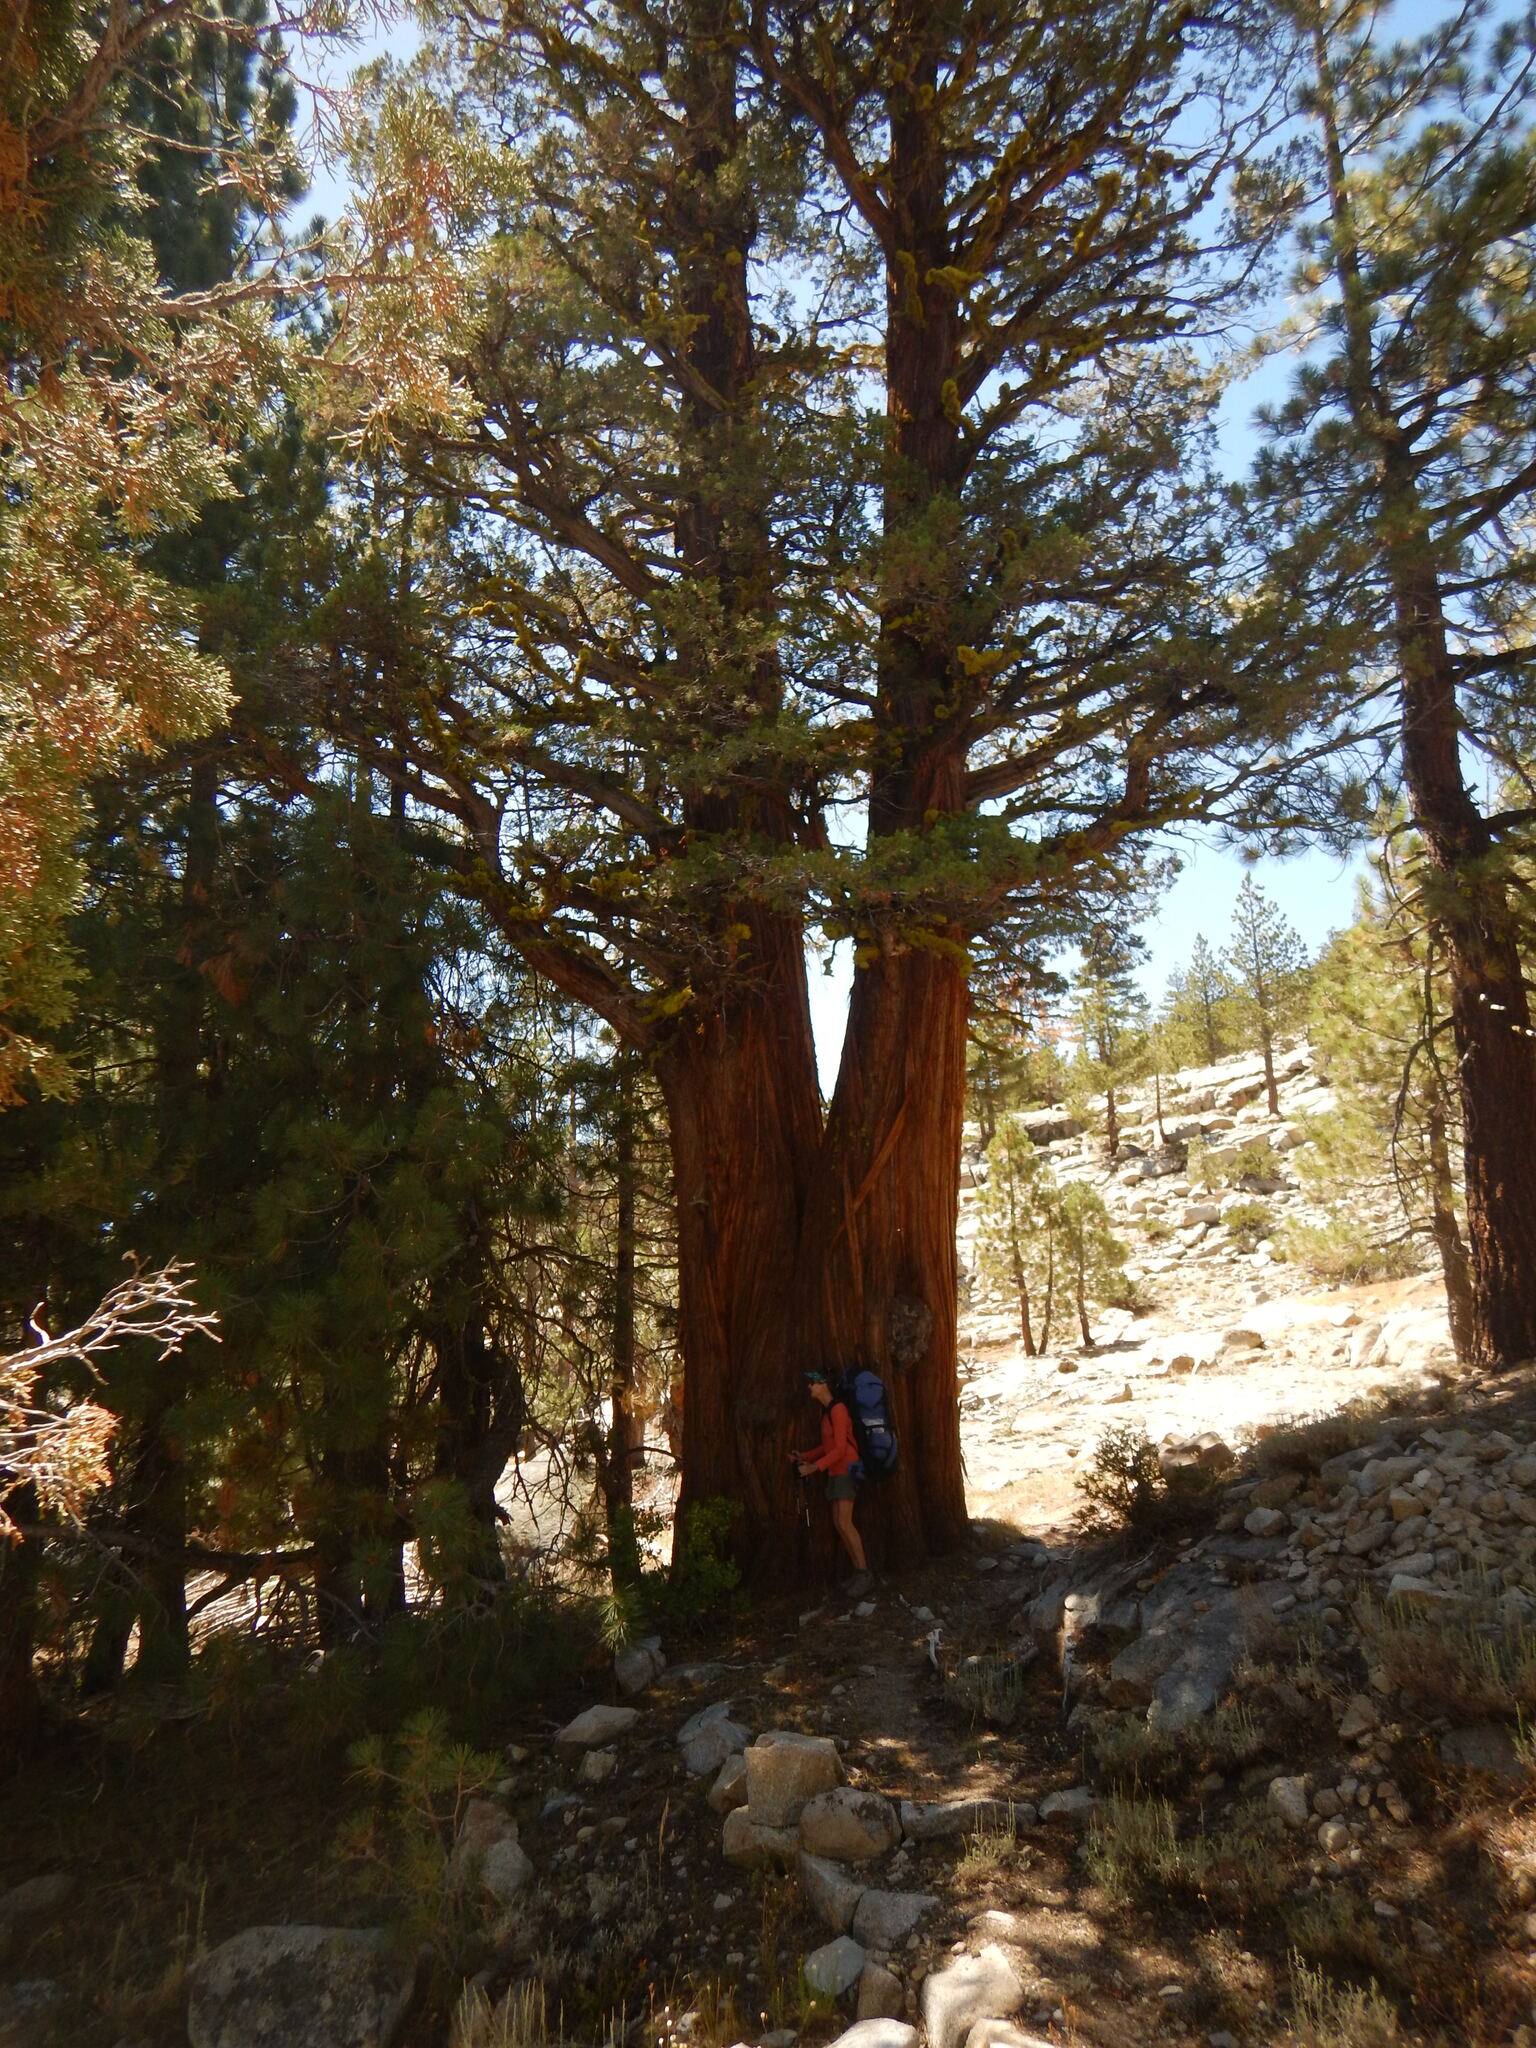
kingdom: Plantae
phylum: Tracheophyta
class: Pinopsida
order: Pinales
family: Cupressaceae
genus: Juniperus
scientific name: Juniperus occidentalis
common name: Western juniper
